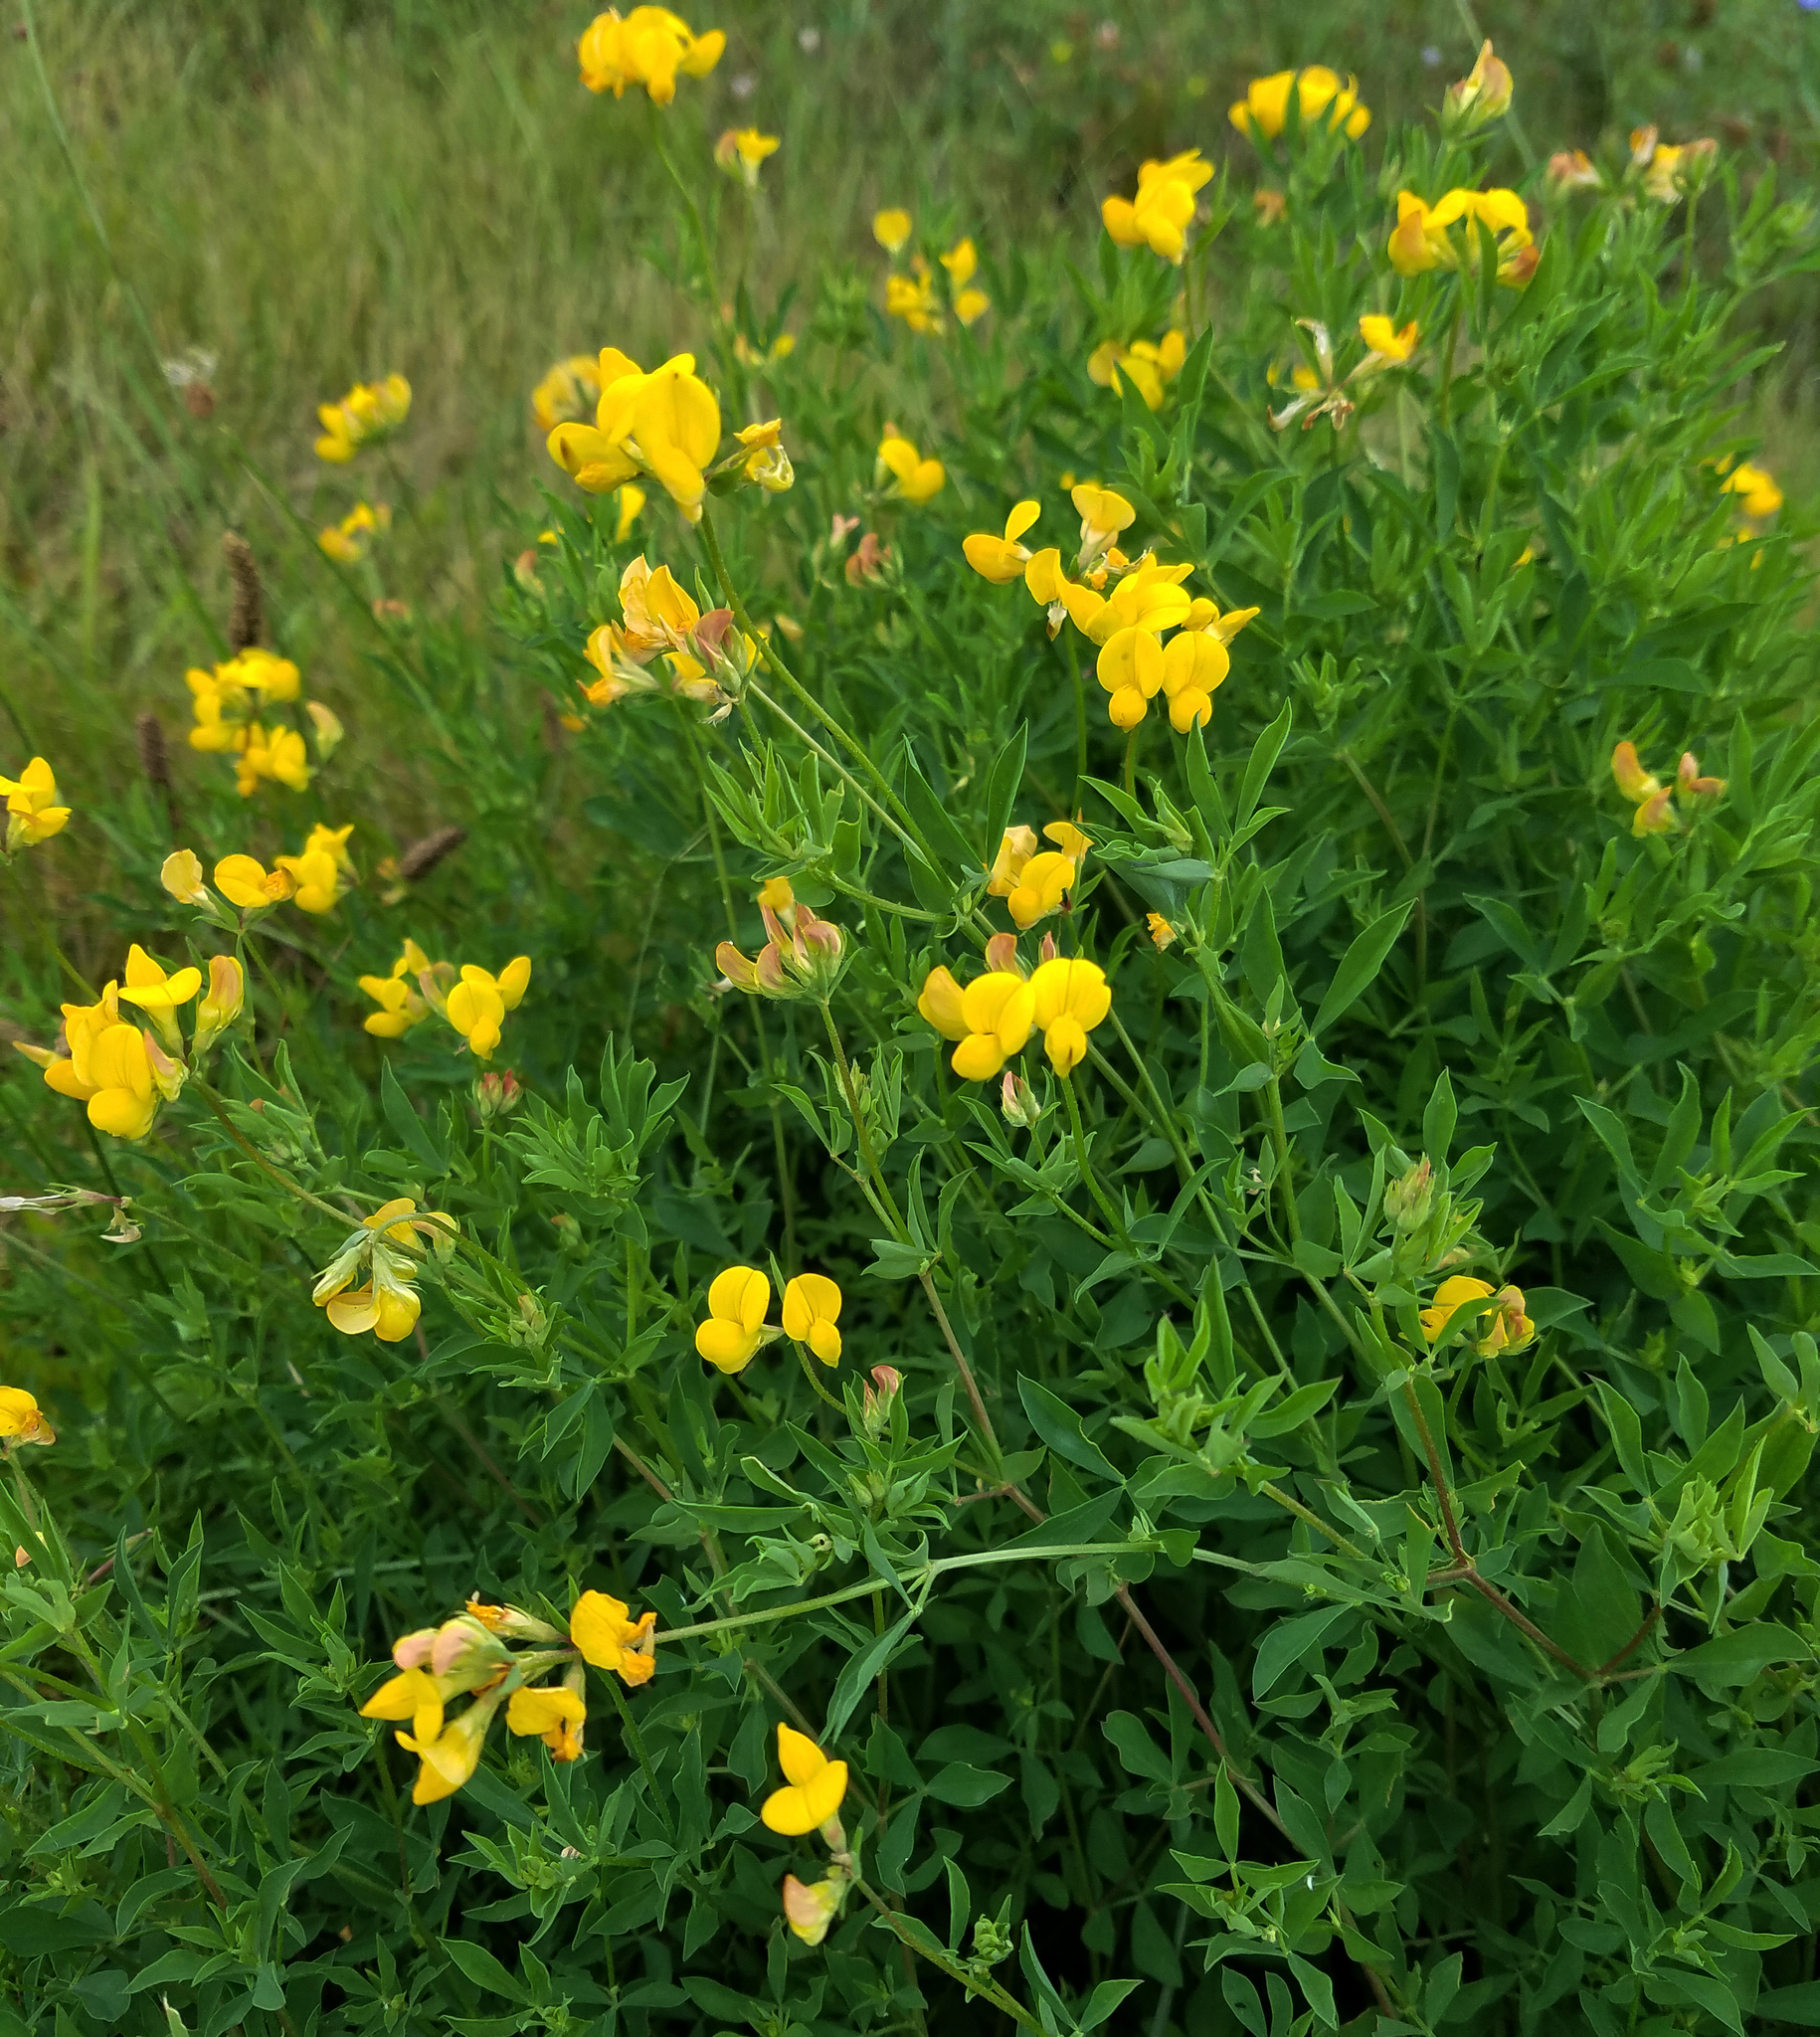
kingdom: Plantae
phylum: Tracheophyta
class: Magnoliopsida
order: Fabales
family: Fabaceae
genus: Lotus
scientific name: Lotus corniculatus
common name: Common bird's-foot-trefoil
